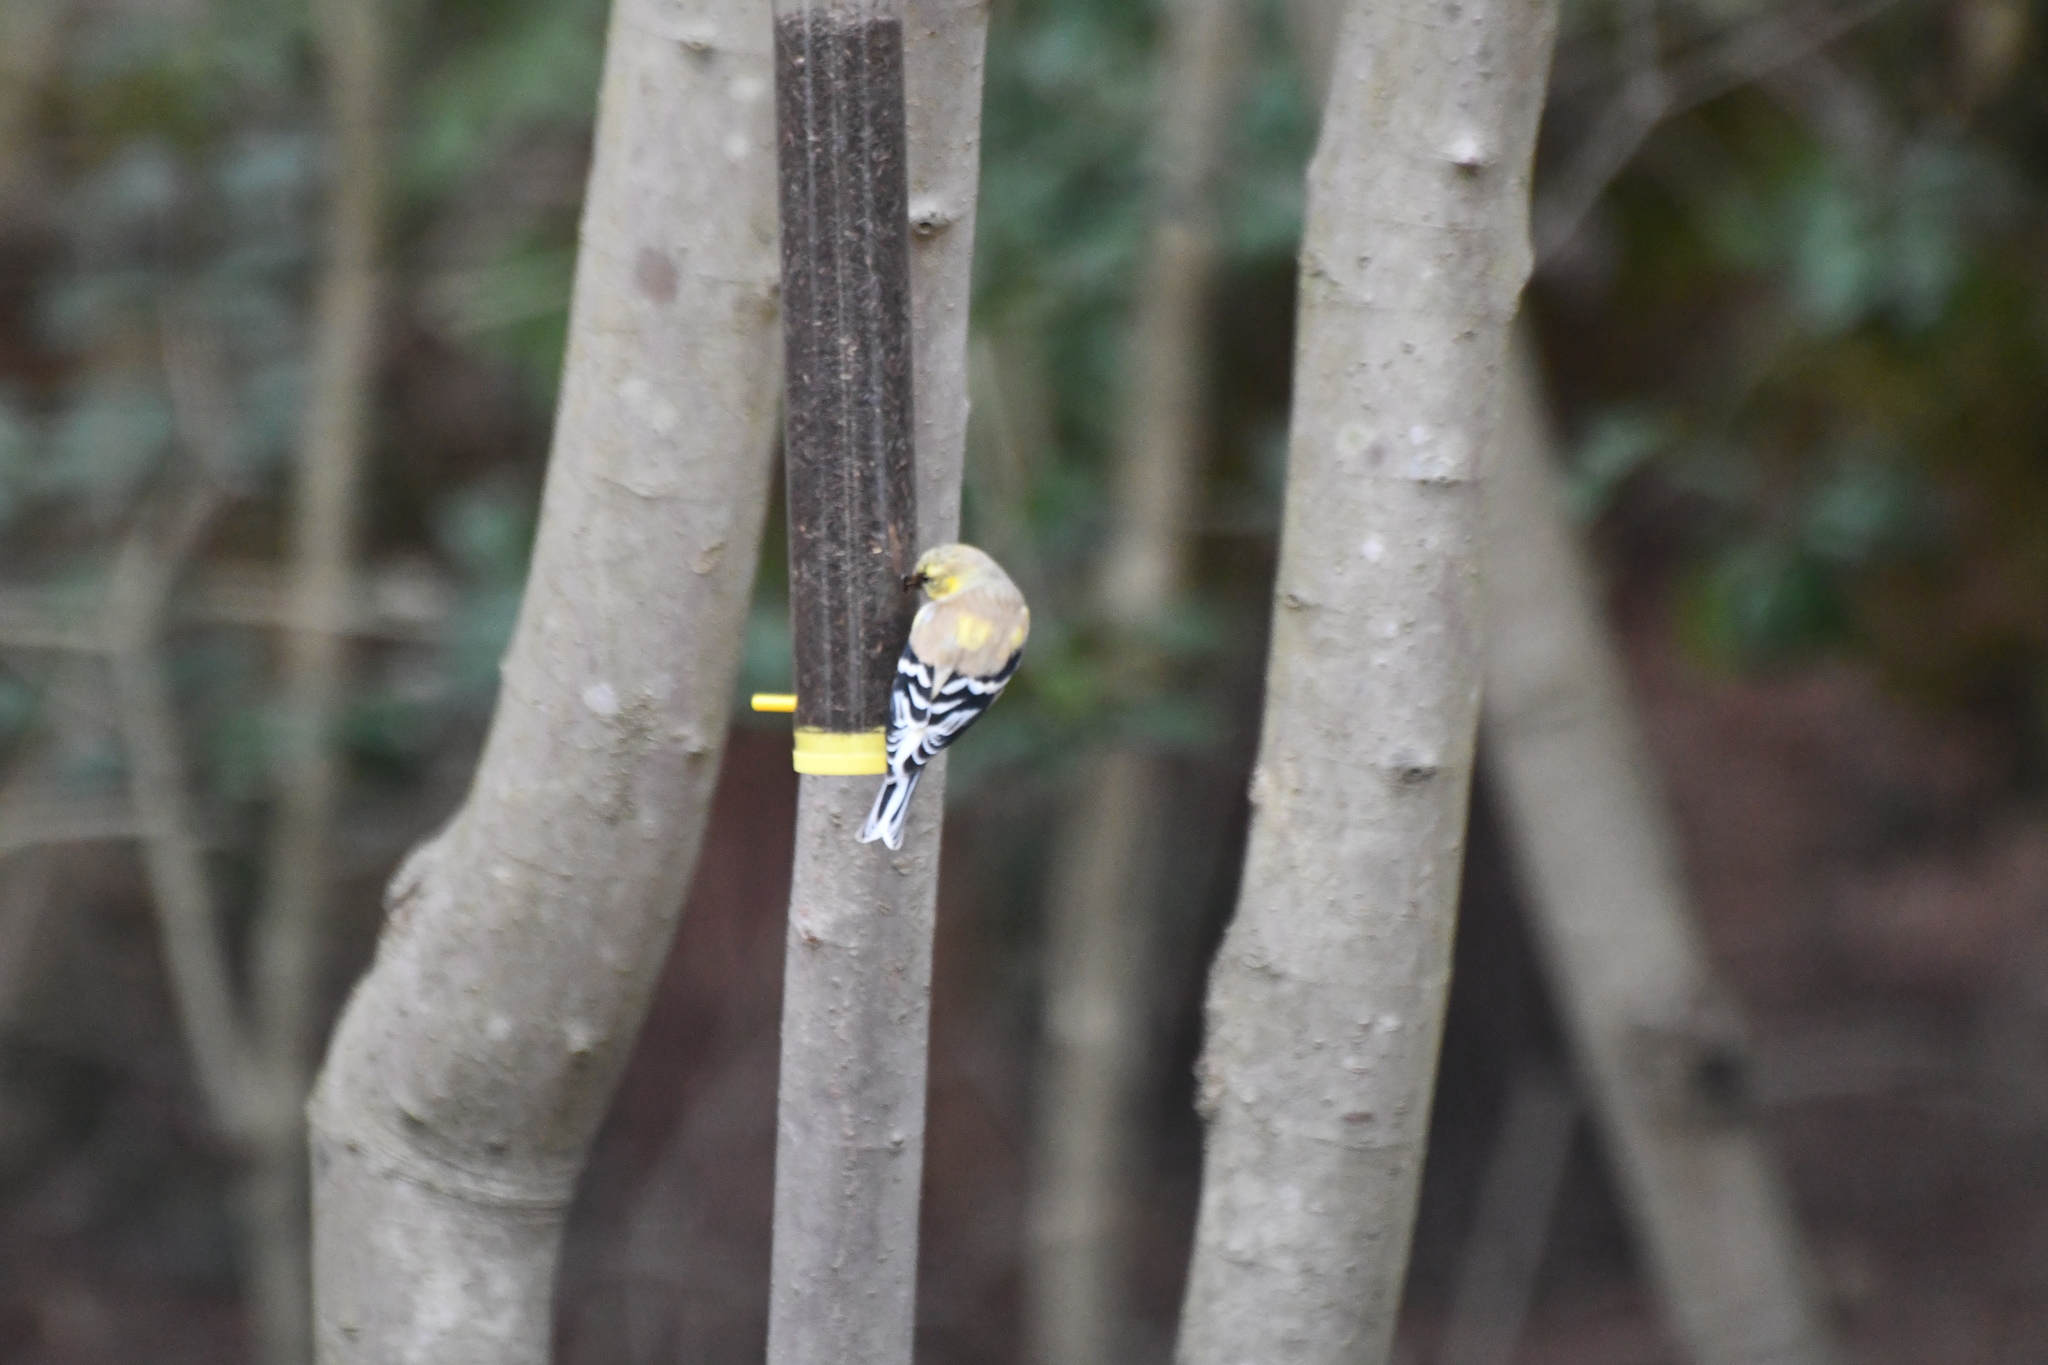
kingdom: Animalia
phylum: Chordata
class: Aves
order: Passeriformes
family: Fringillidae
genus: Spinus
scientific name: Spinus tristis
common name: American goldfinch
